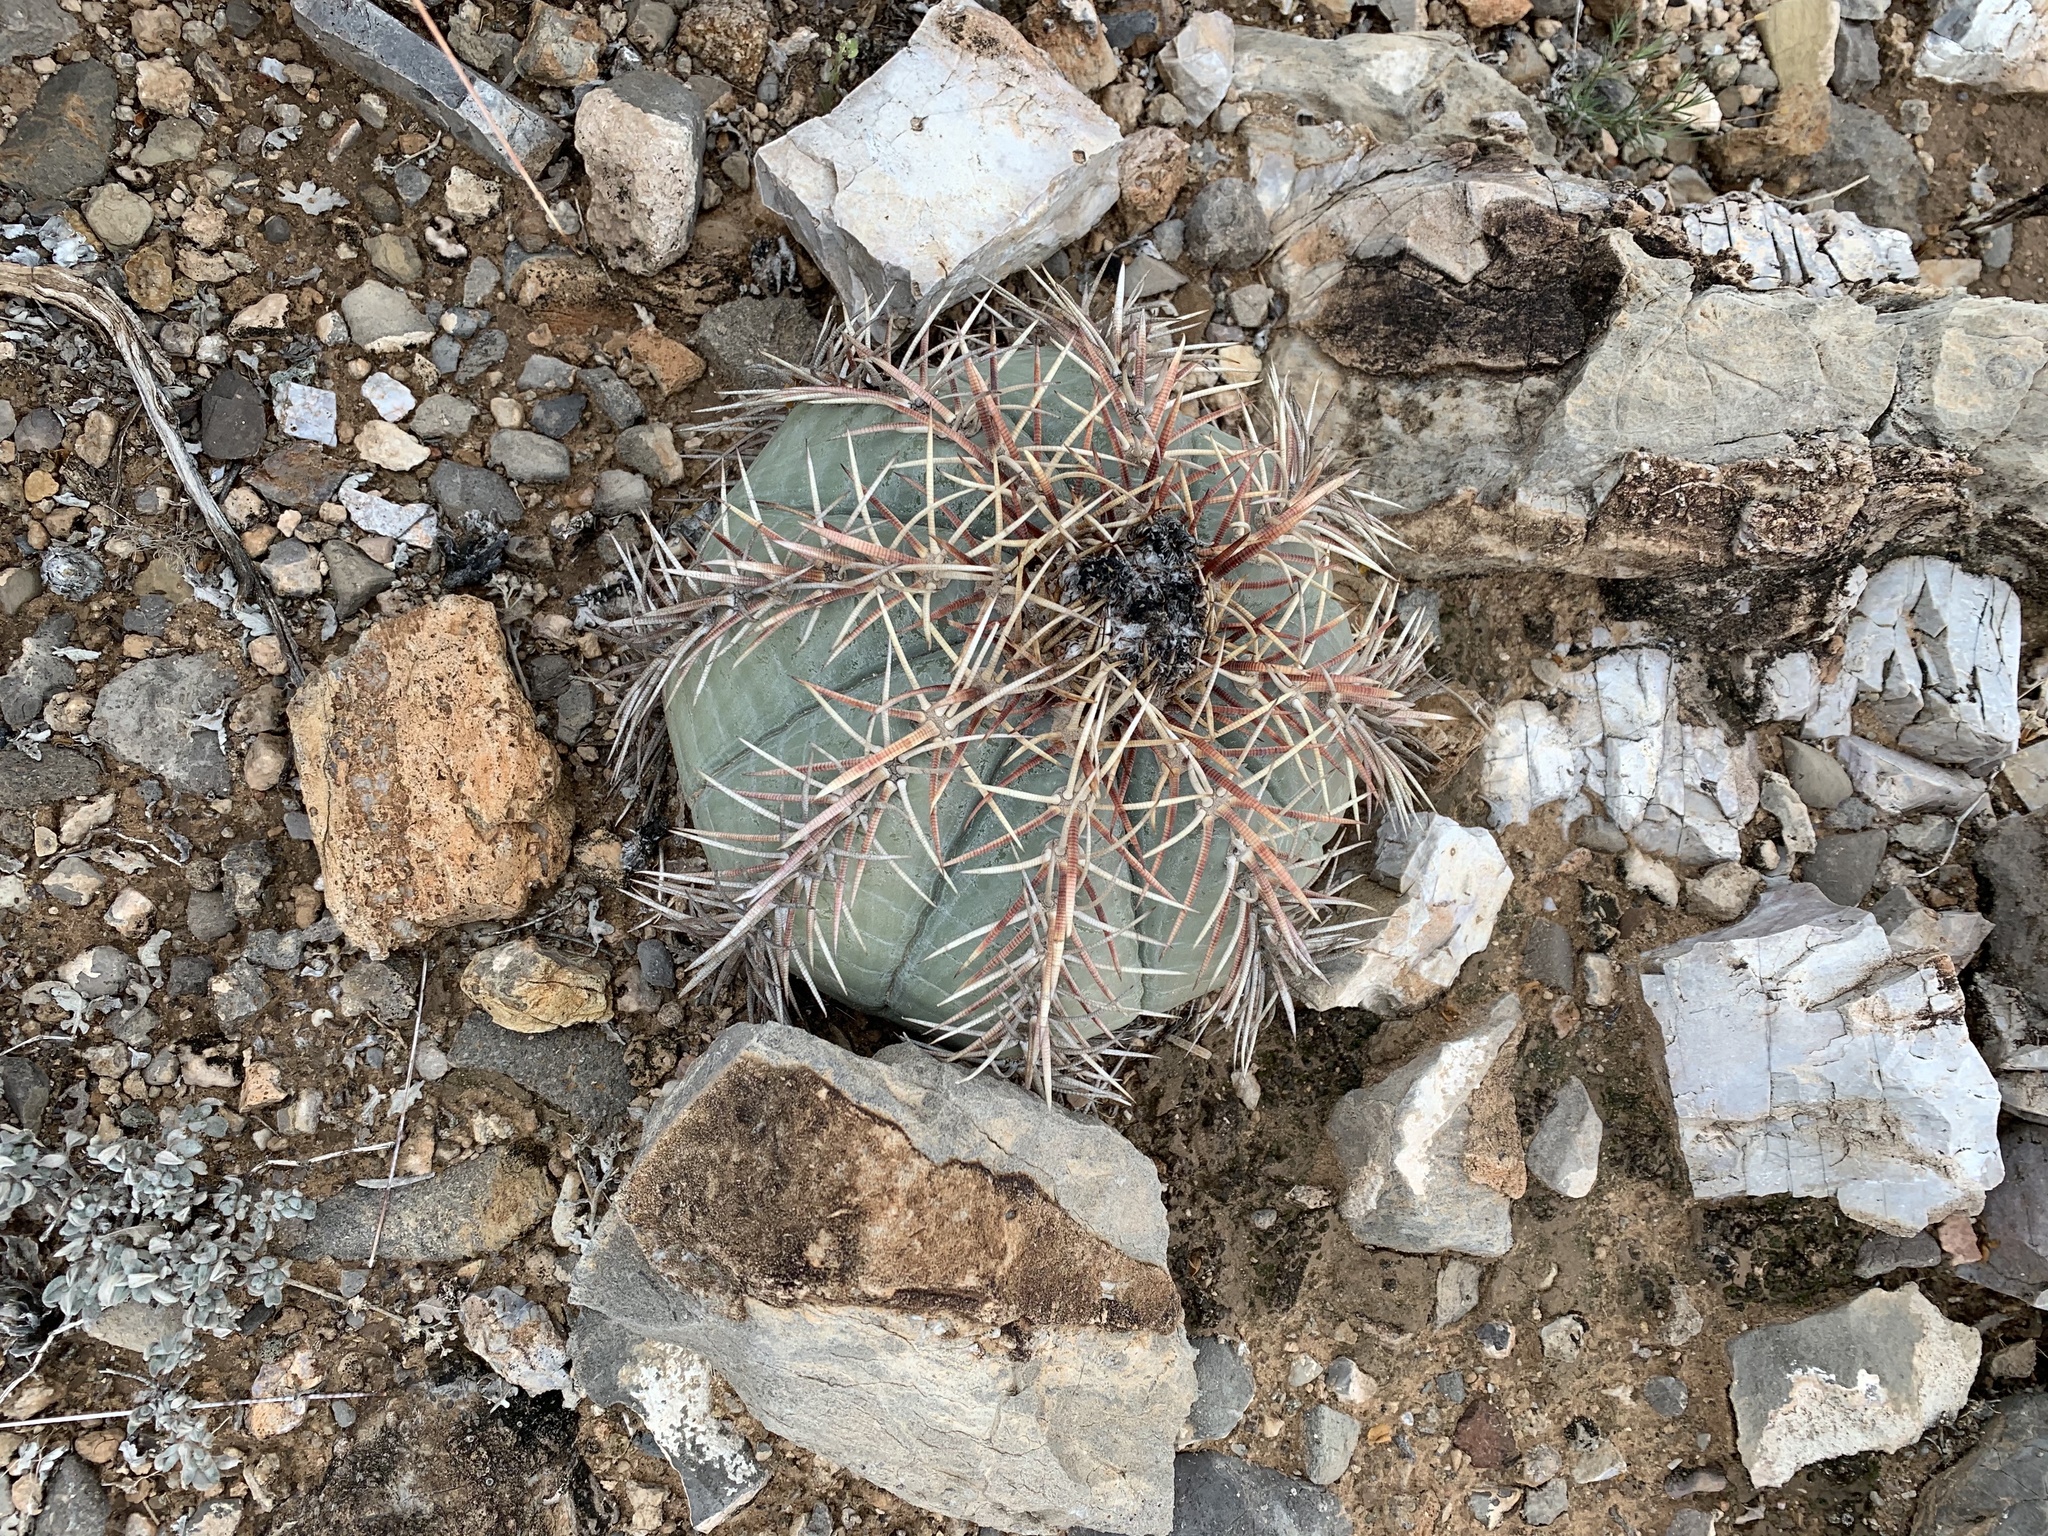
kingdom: Plantae
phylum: Tracheophyta
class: Magnoliopsida
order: Caryophyllales
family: Cactaceae
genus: Echinocactus
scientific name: Echinocactus horizonthalonius
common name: Devilshead
